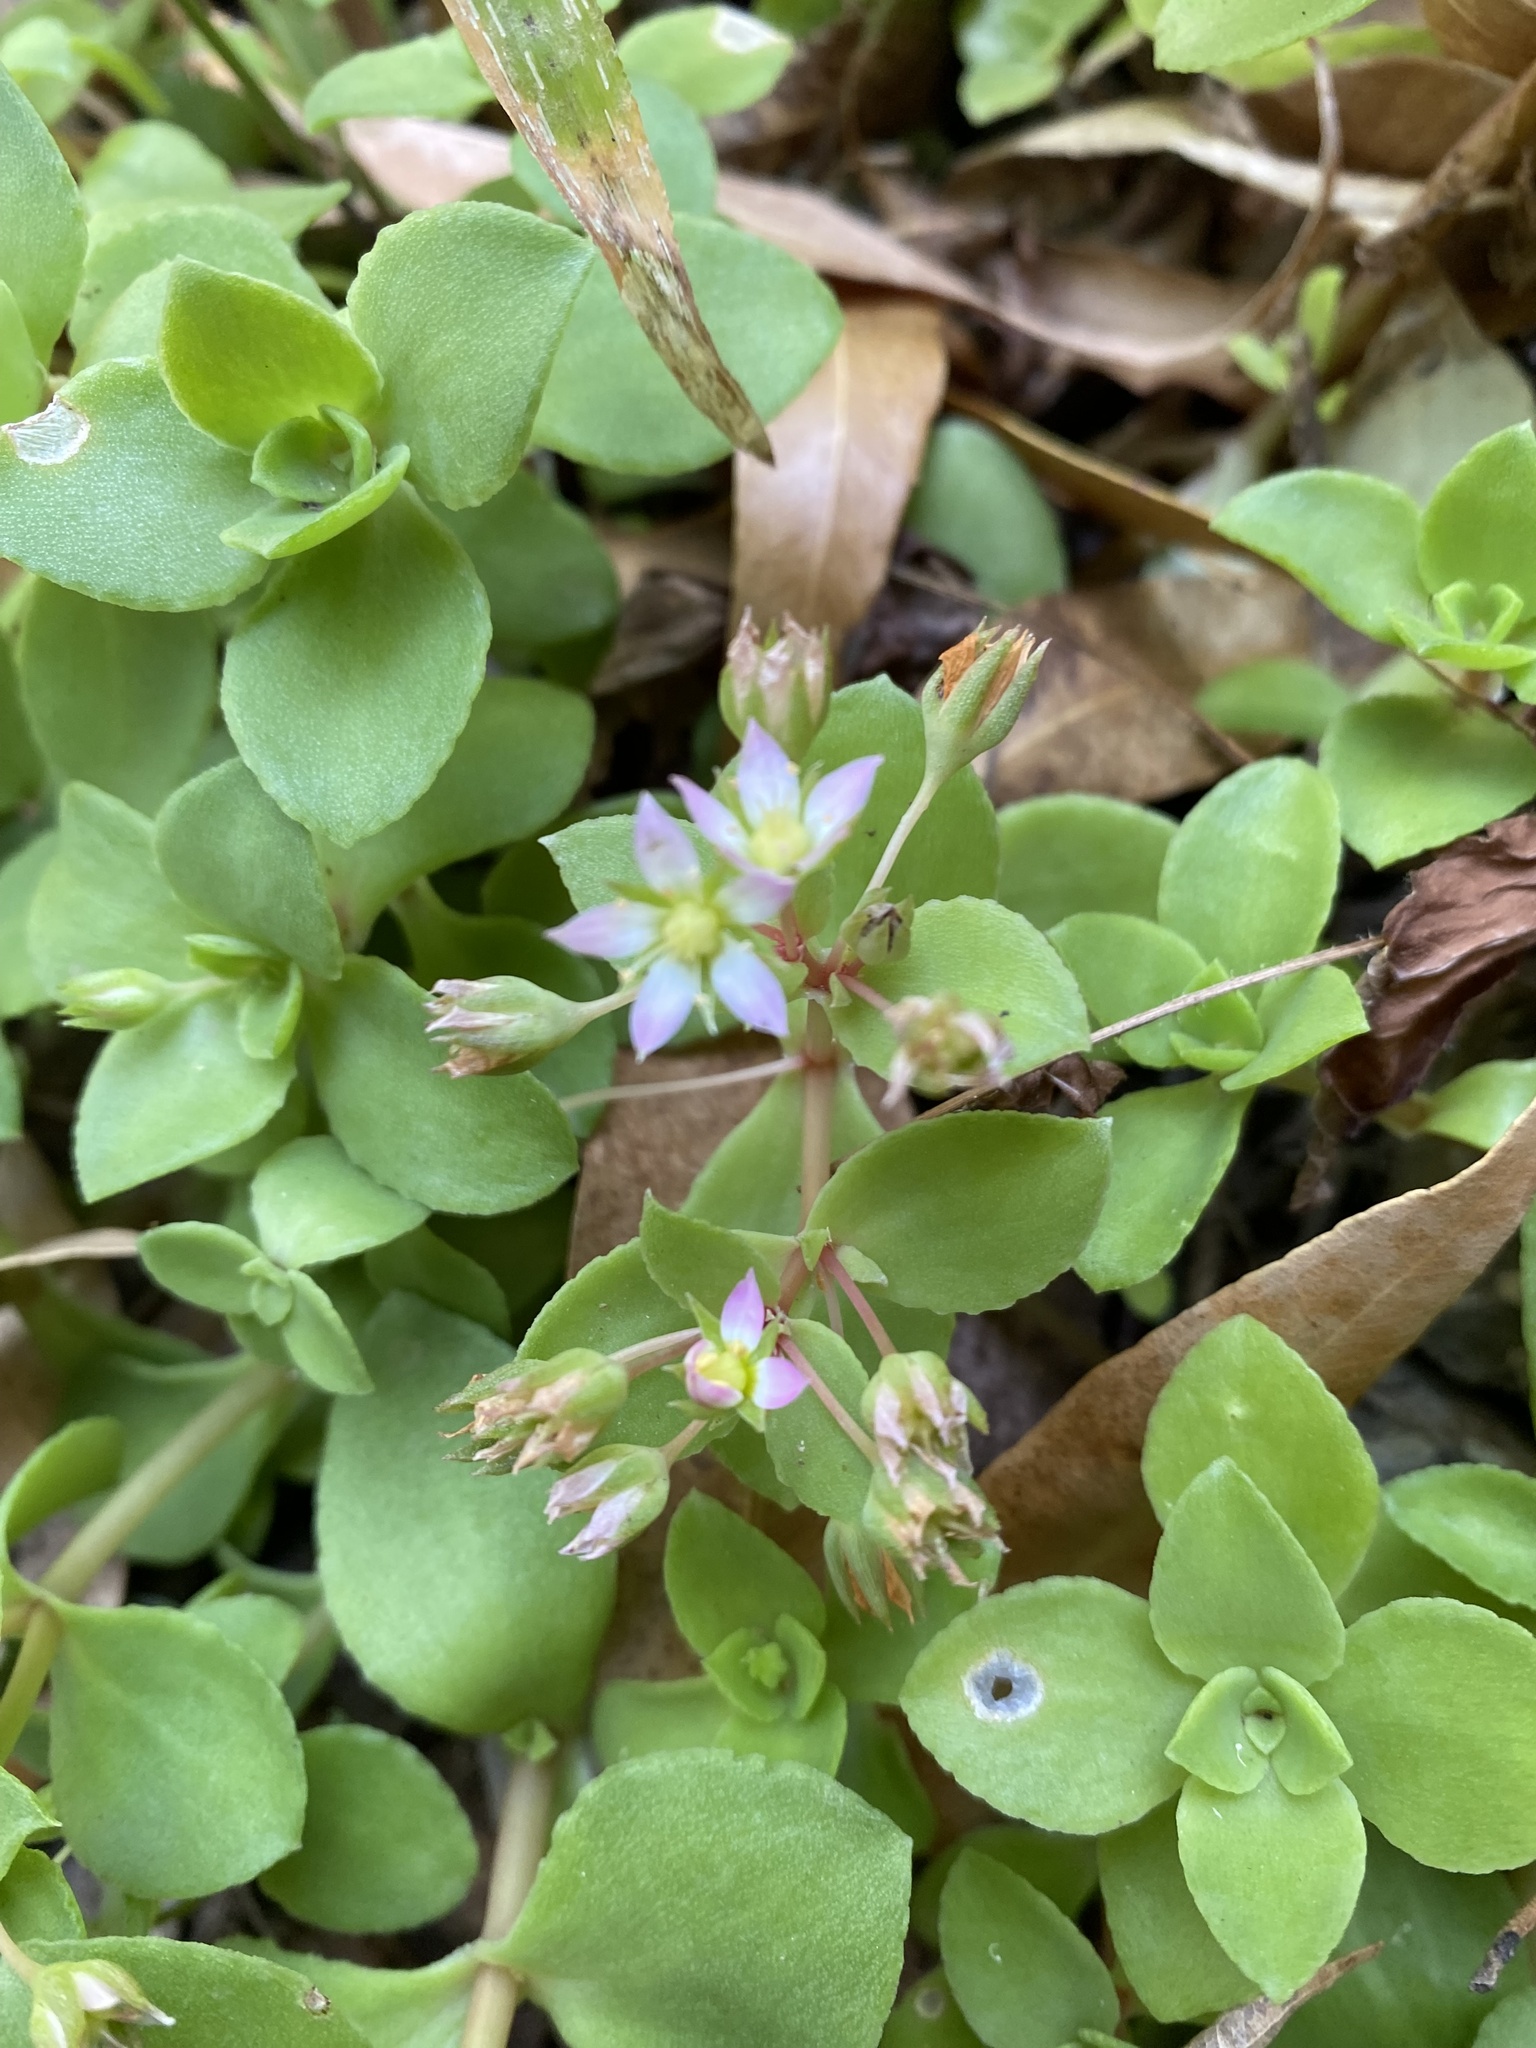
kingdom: Plantae
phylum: Tracheophyta
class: Magnoliopsida
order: Saxifragales
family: Crassulaceae
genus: Crassula
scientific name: Crassula pellucida
